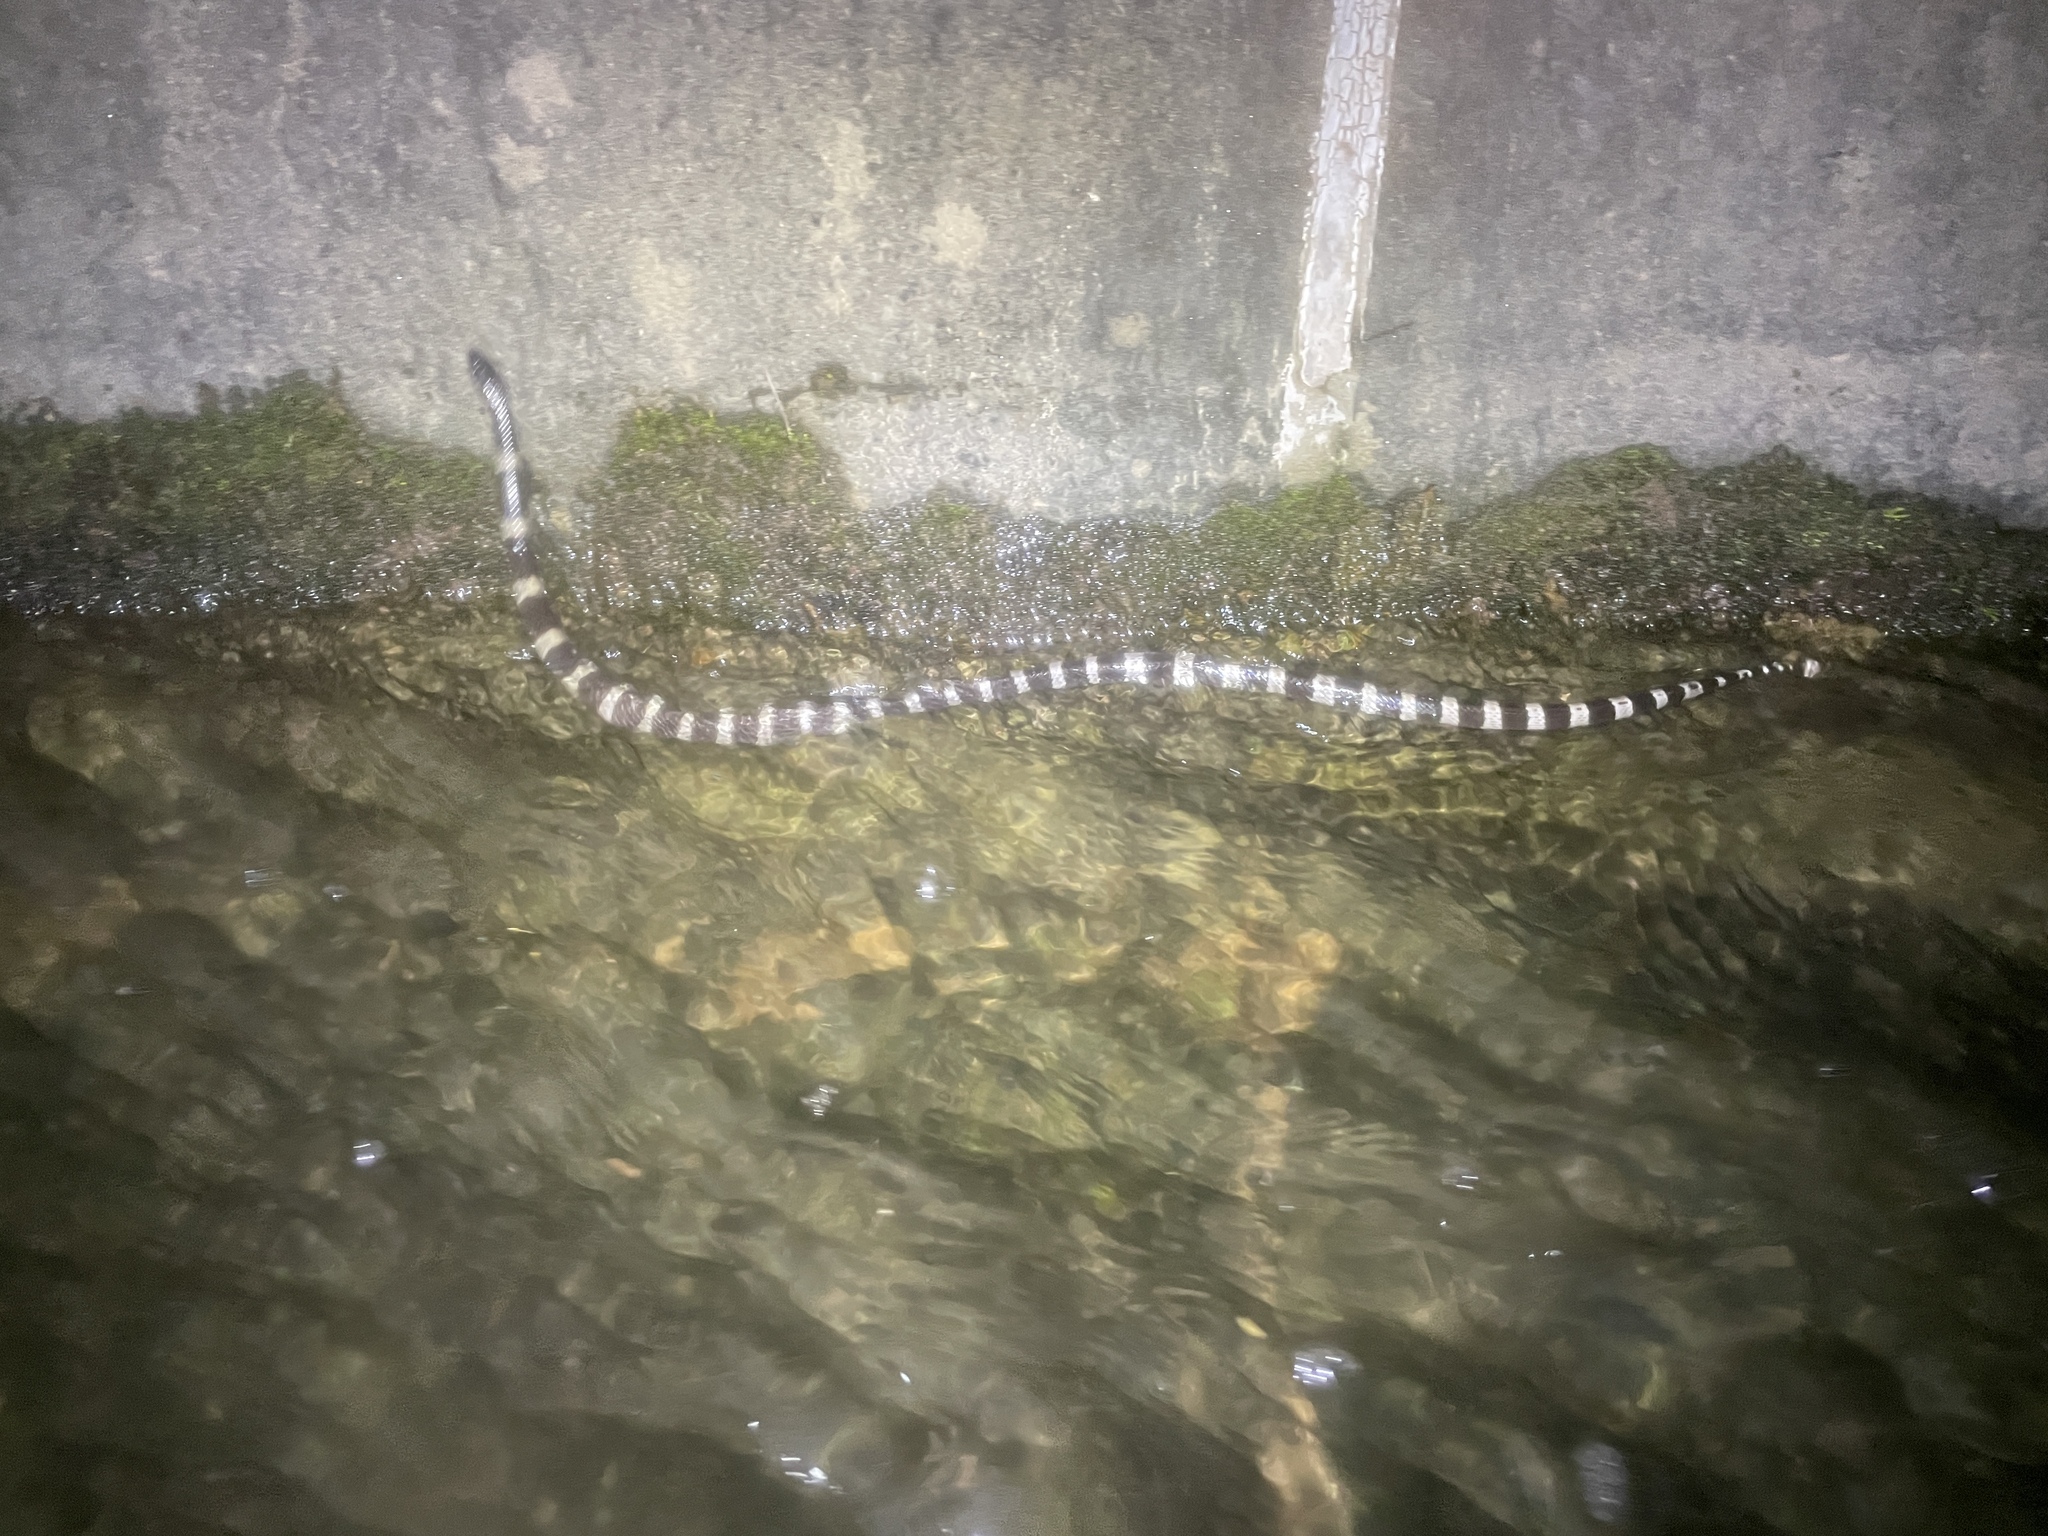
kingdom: Animalia
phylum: Chordata
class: Squamata
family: Elapidae
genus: Bungarus
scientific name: Bungarus multicinctus
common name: Many-banded krait
